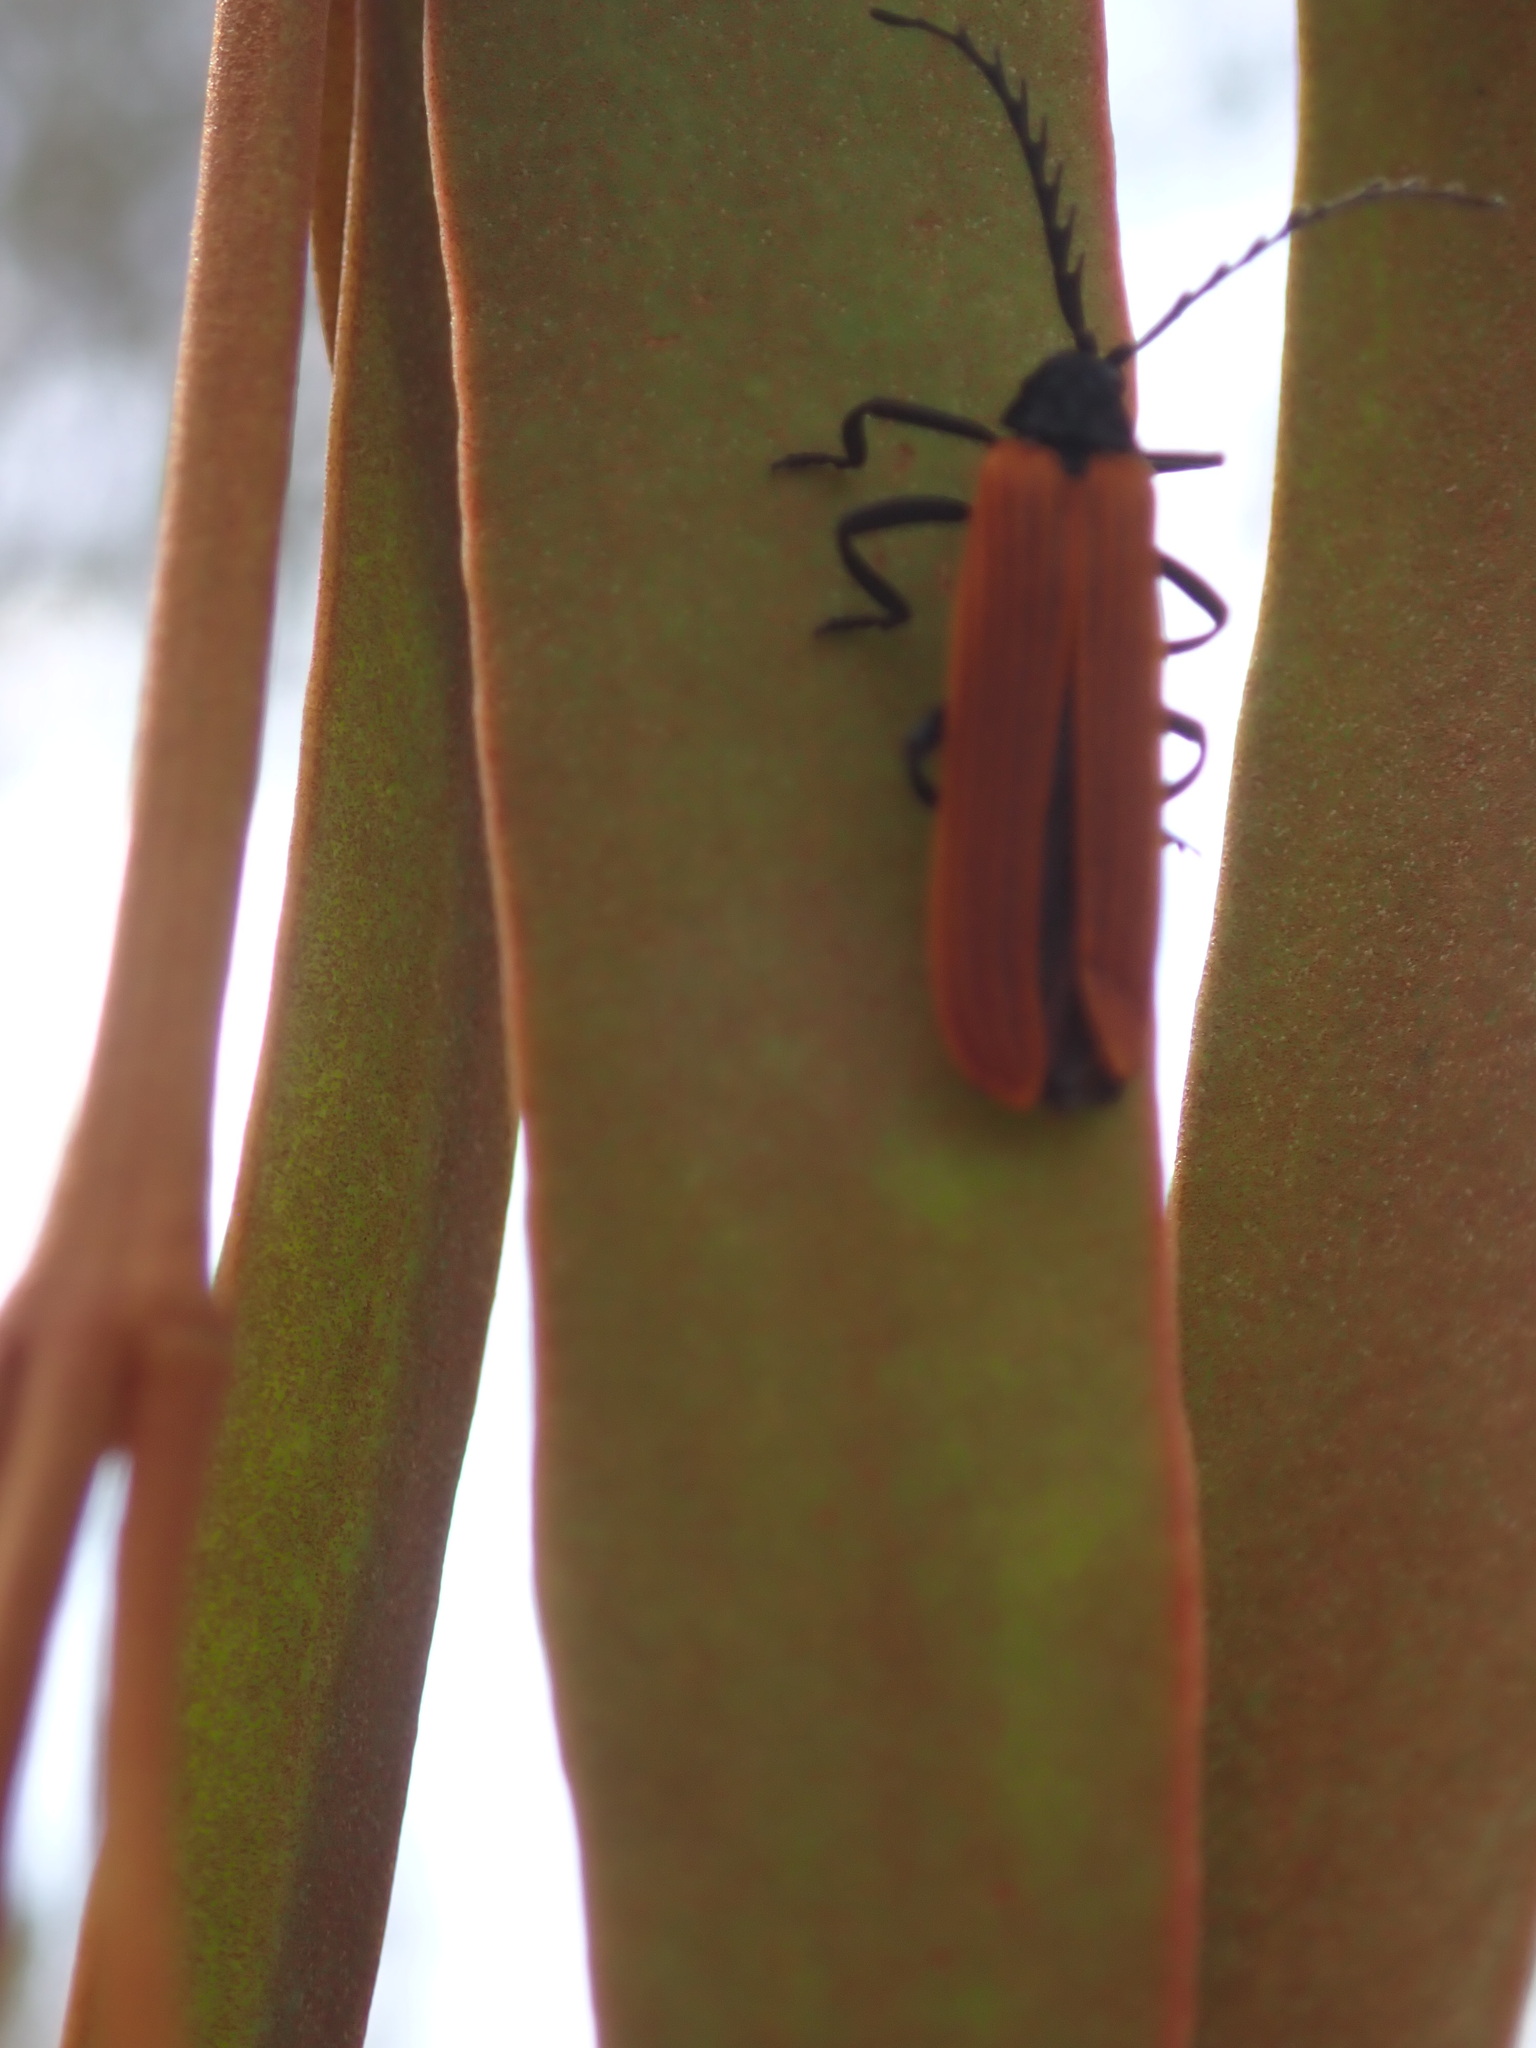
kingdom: Animalia
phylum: Arthropoda
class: Insecta
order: Coleoptera
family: Lycidae
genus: Porrostoma
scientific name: Porrostoma rhipidium
